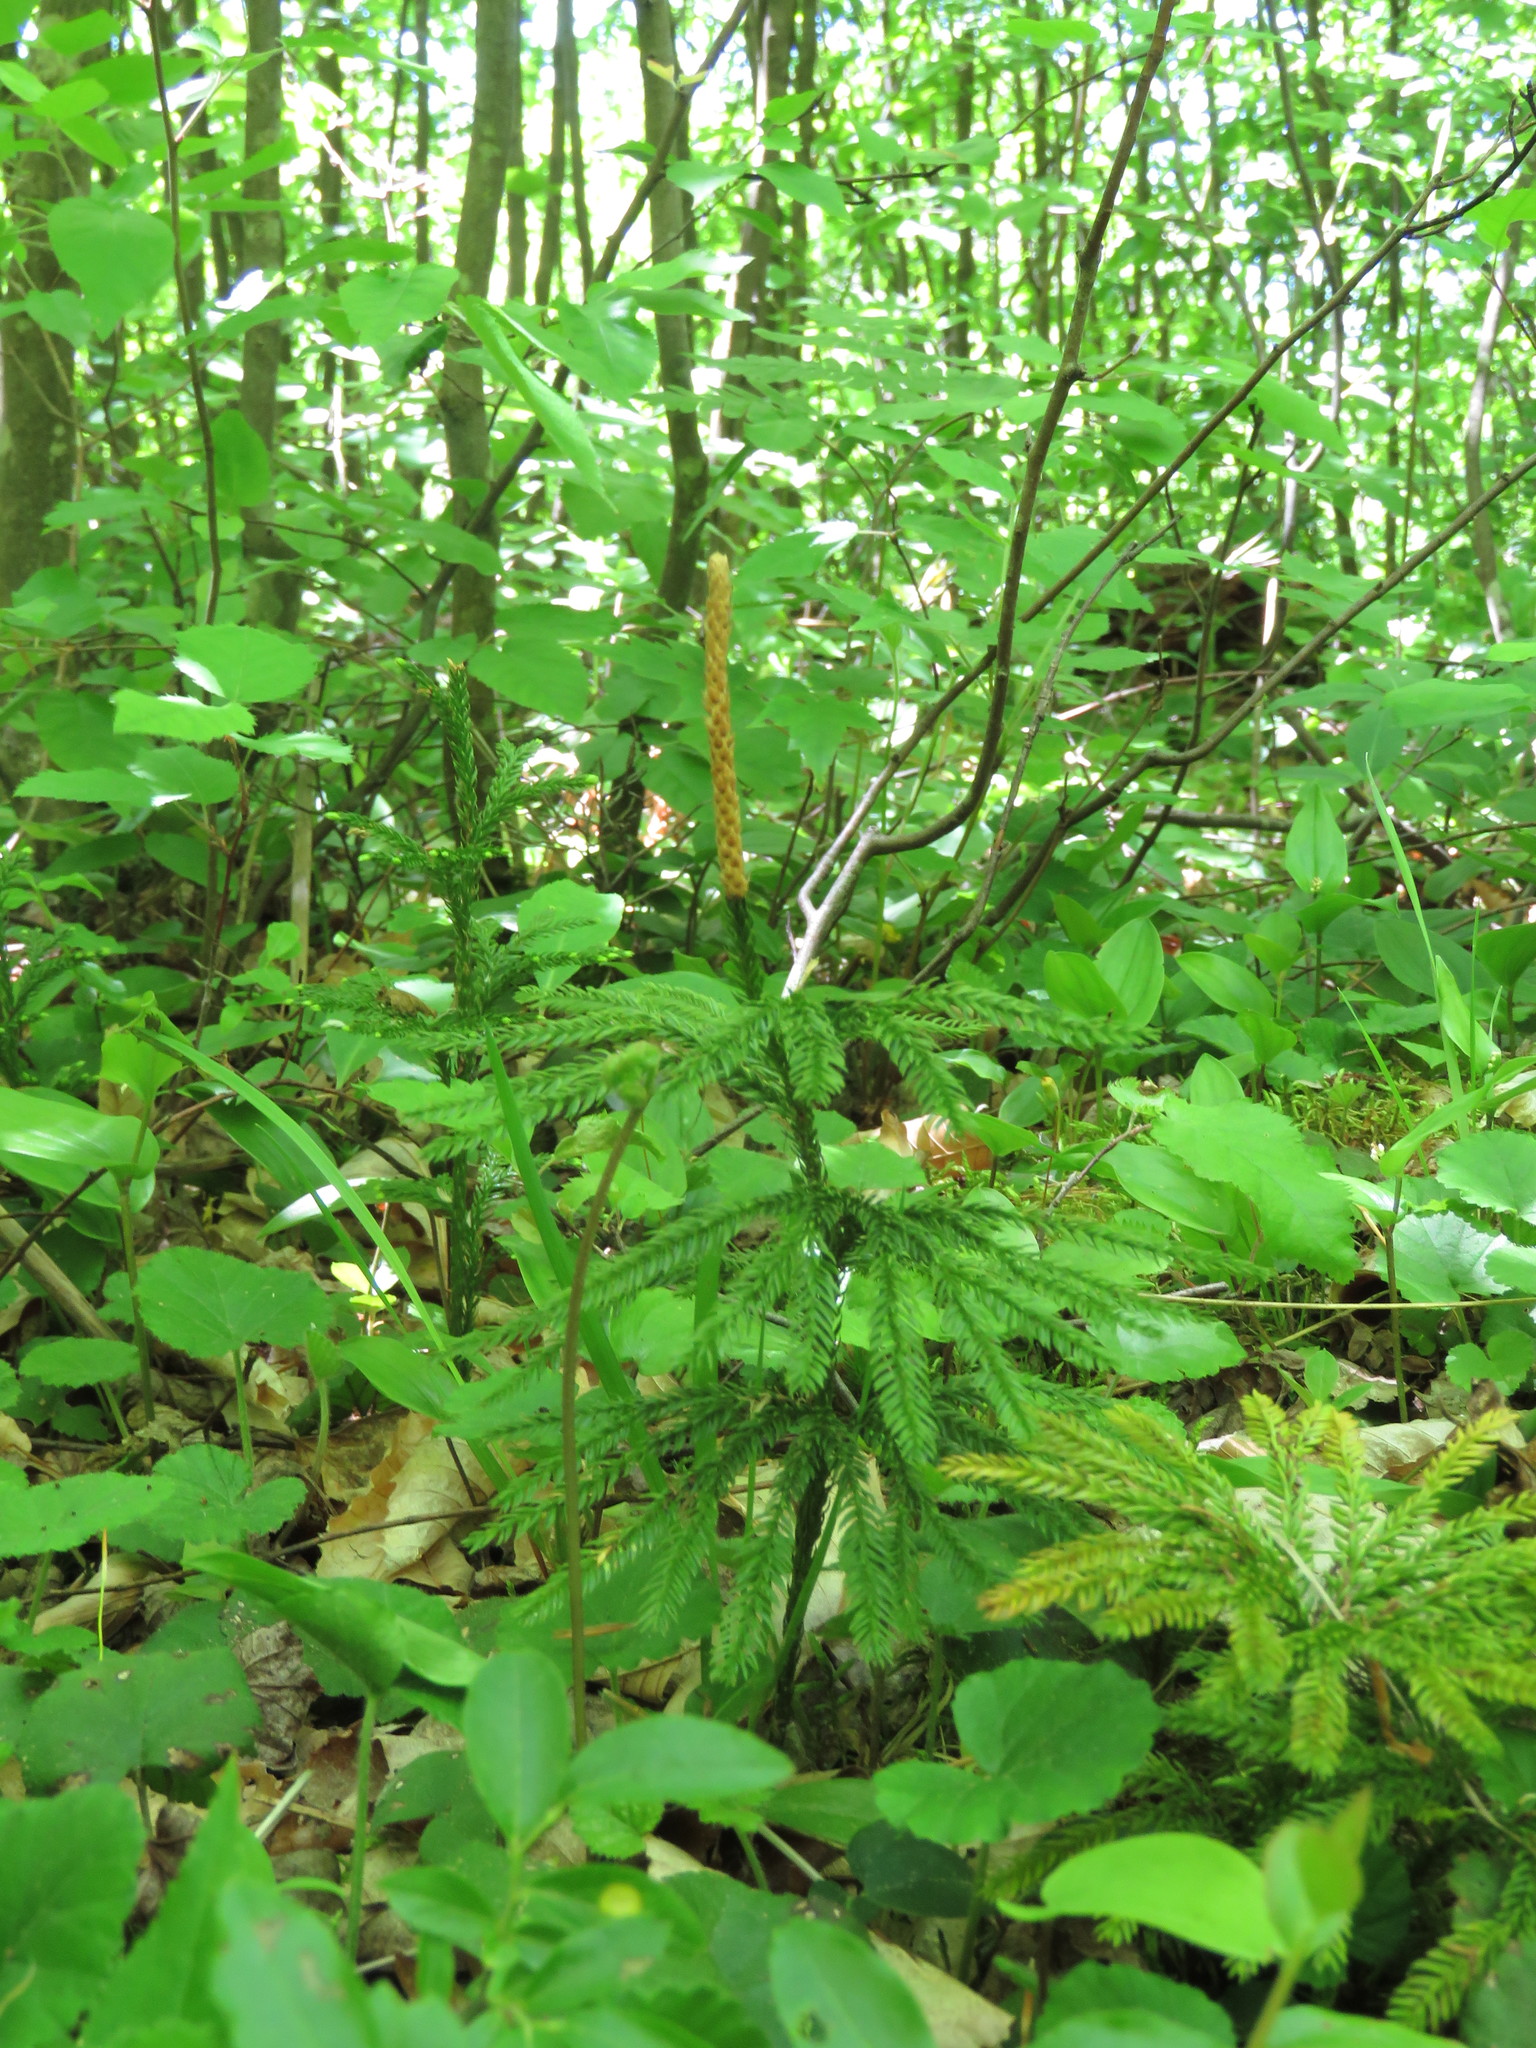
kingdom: Plantae
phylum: Tracheophyta
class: Lycopodiopsida
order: Lycopodiales
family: Lycopodiaceae
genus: Dendrolycopodium
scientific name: Dendrolycopodium obscurum
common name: Common ground-pine
